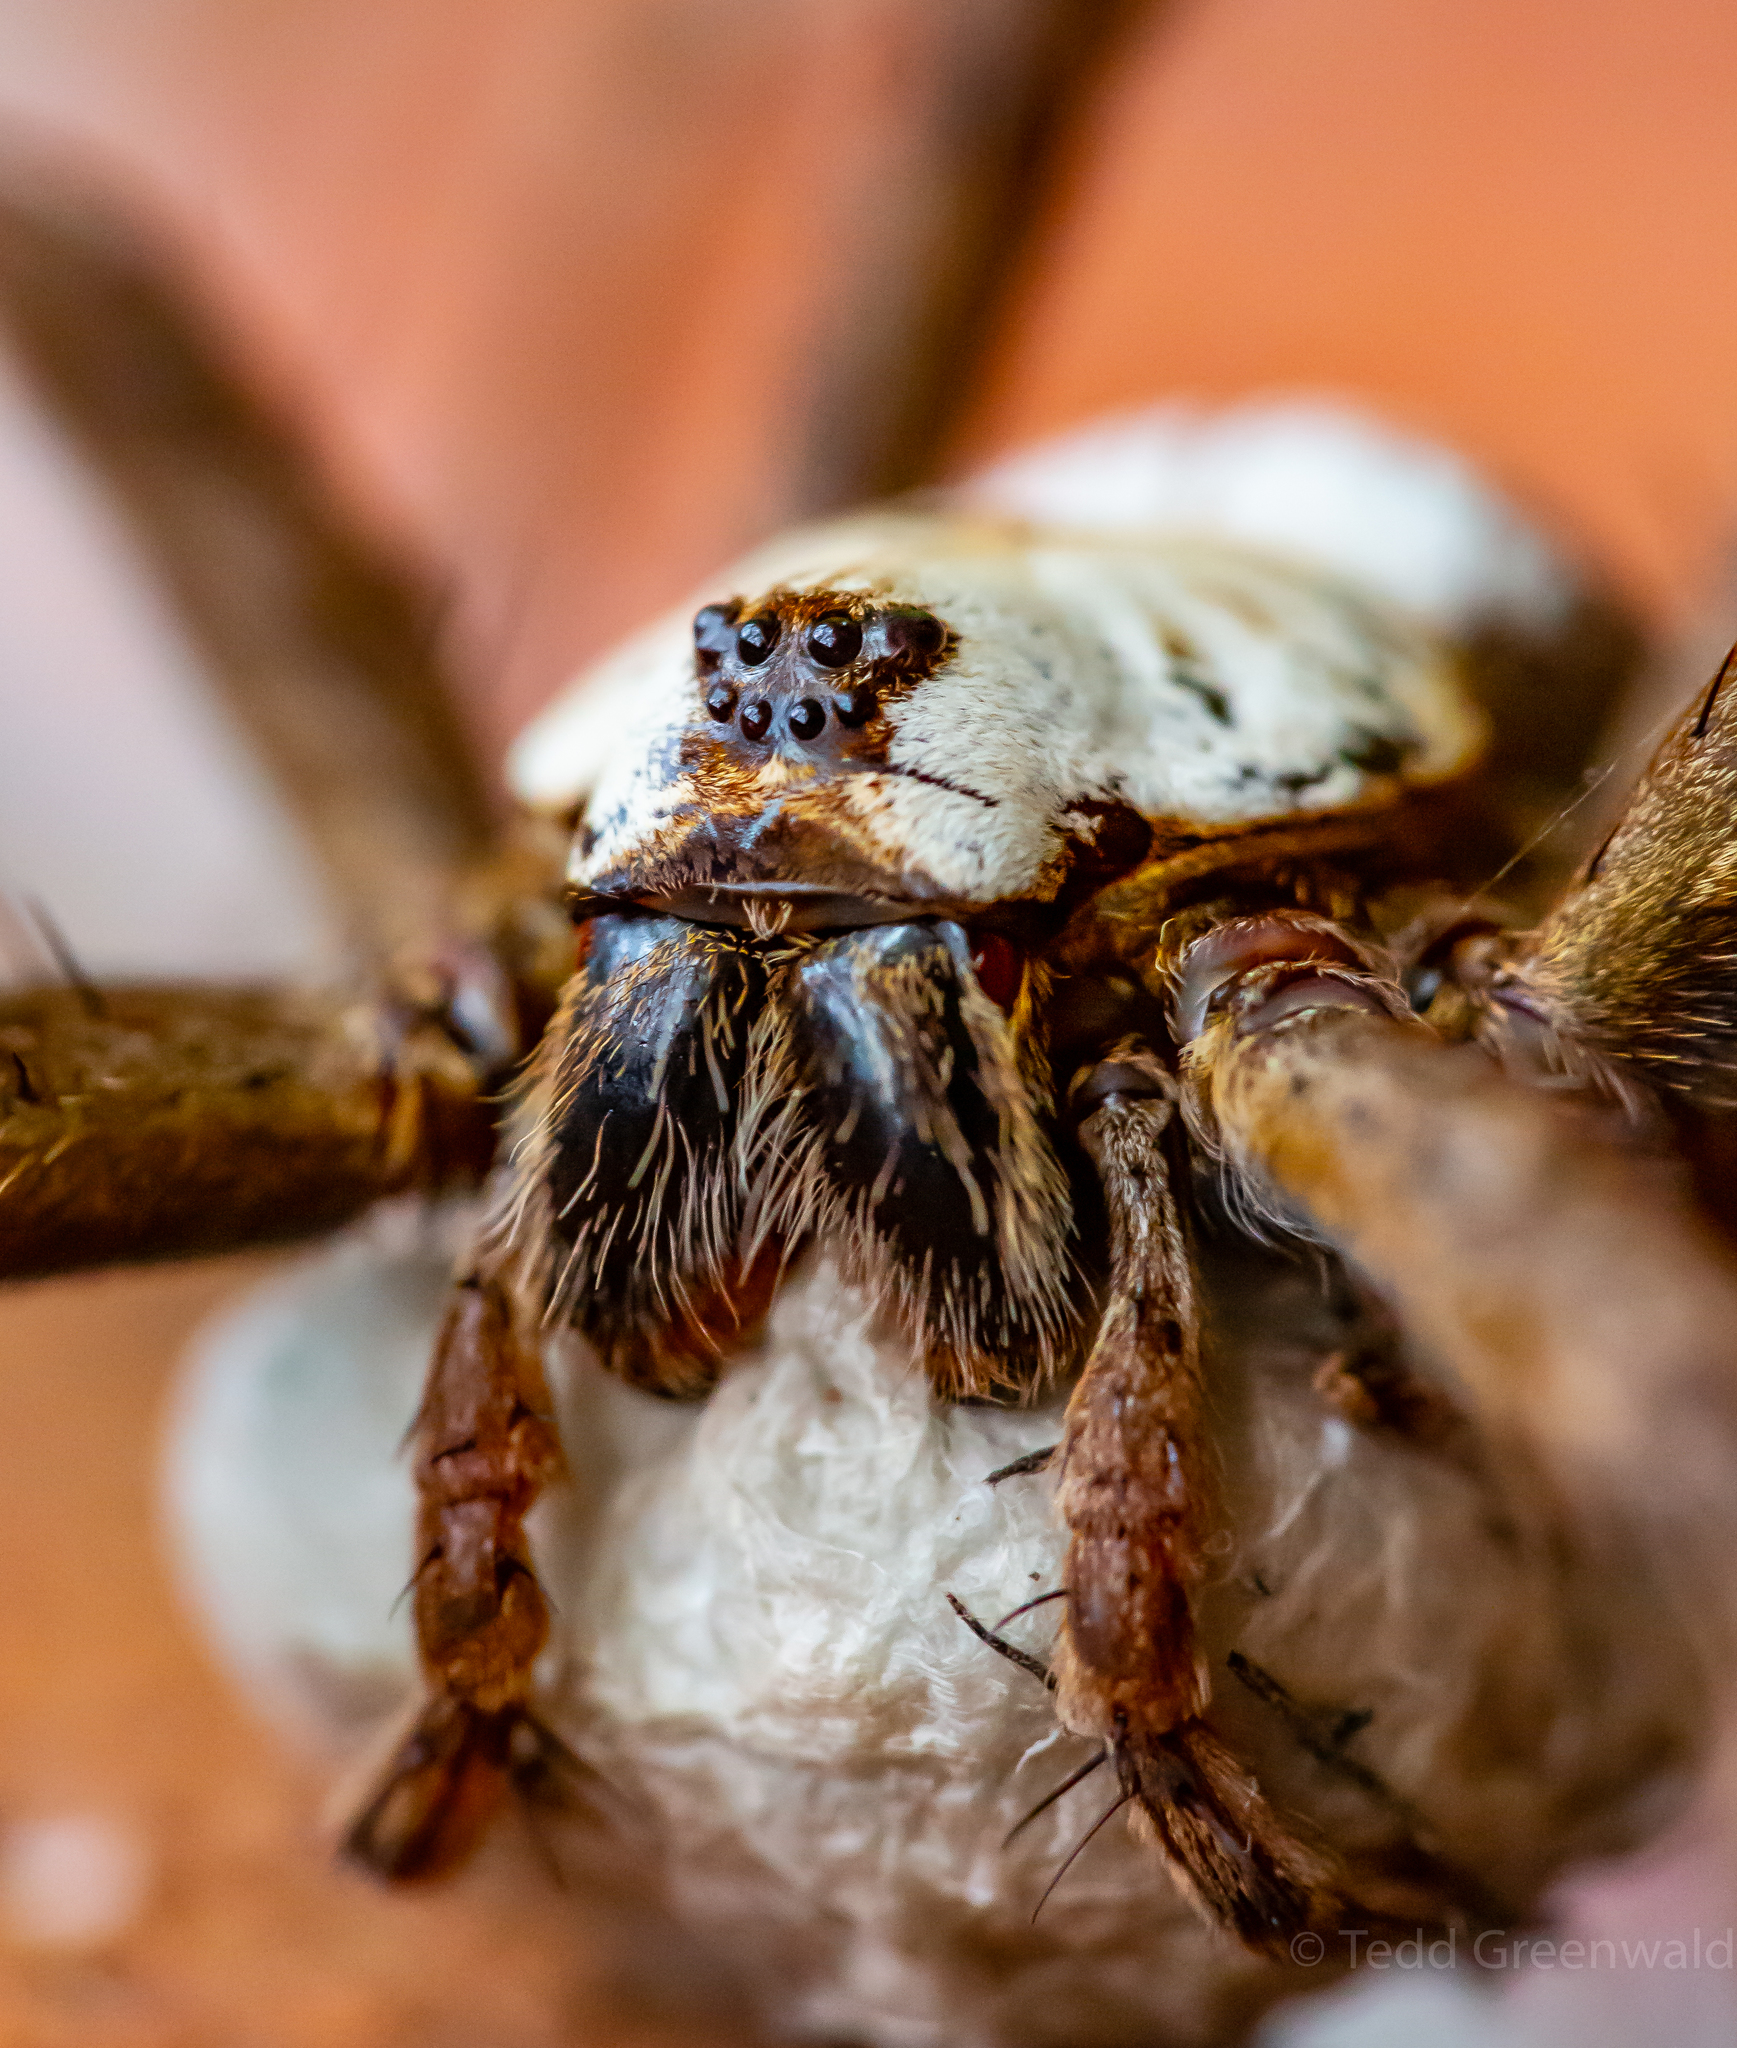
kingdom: Animalia
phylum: Arthropoda
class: Arachnida
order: Araneae
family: Pisauridae
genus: Dolomedes
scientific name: Dolomedes albineus
